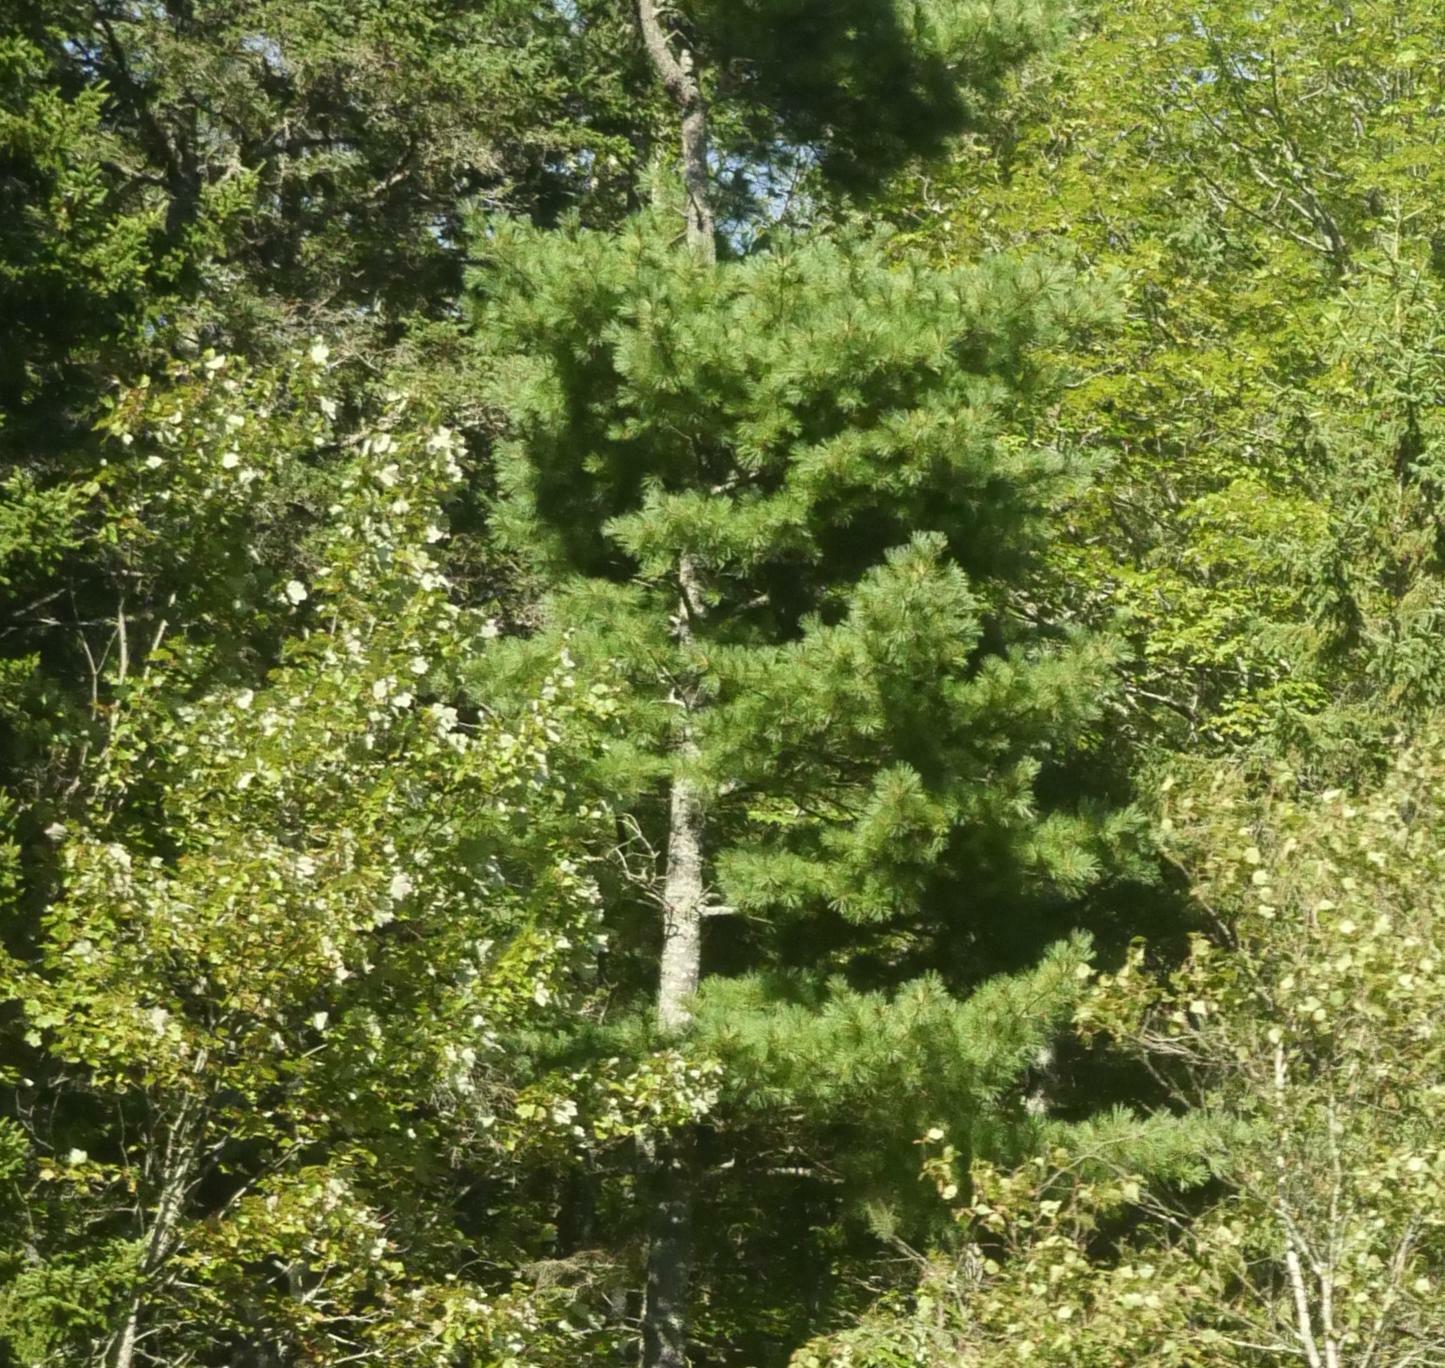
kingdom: Plantae
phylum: Tracheophyta
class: Pinopsida
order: Pinales
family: Pinaceae
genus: Pinus
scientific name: Pinus strobus
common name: Weymouth pine
